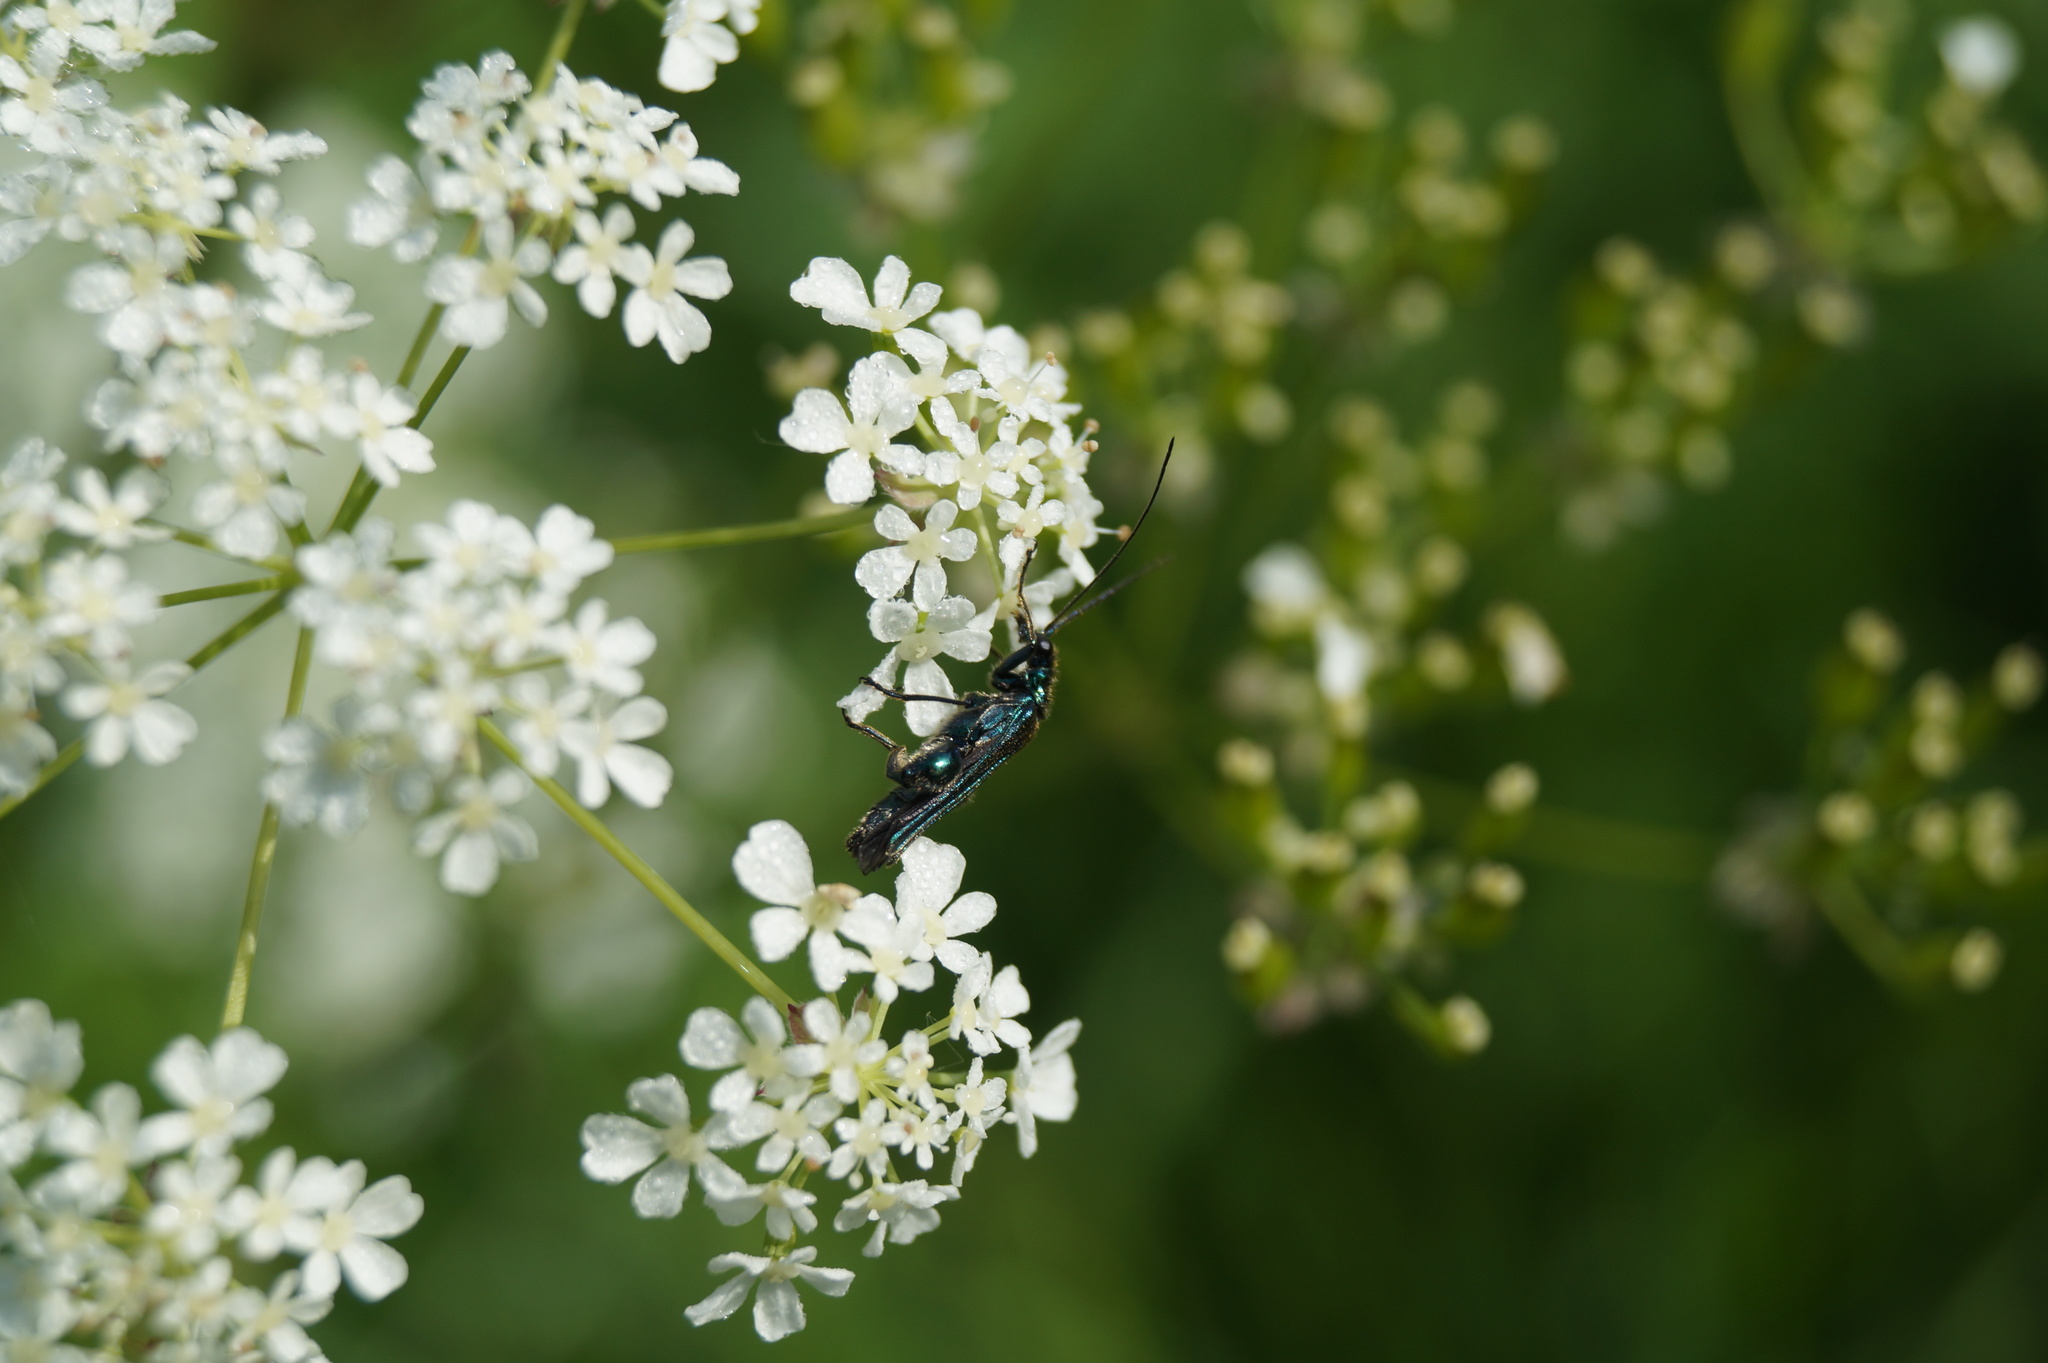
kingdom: Animalia
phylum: Arthropoda
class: Insecta
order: Coleoptera
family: Oedemeridae
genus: Oedemera
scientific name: Oedemera nobilis
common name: Swollen-thighed beetle
